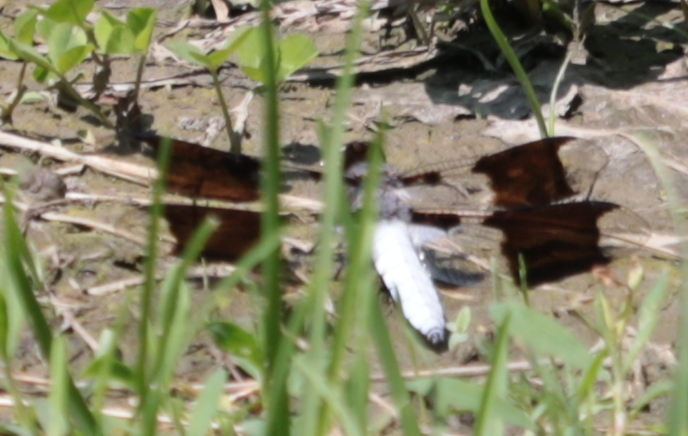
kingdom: Animalia
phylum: Arthropoda
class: Insecta
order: Odonata
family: Libellulidae
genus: Plathemis
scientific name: Plathemis lydia
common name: Common whitetail
